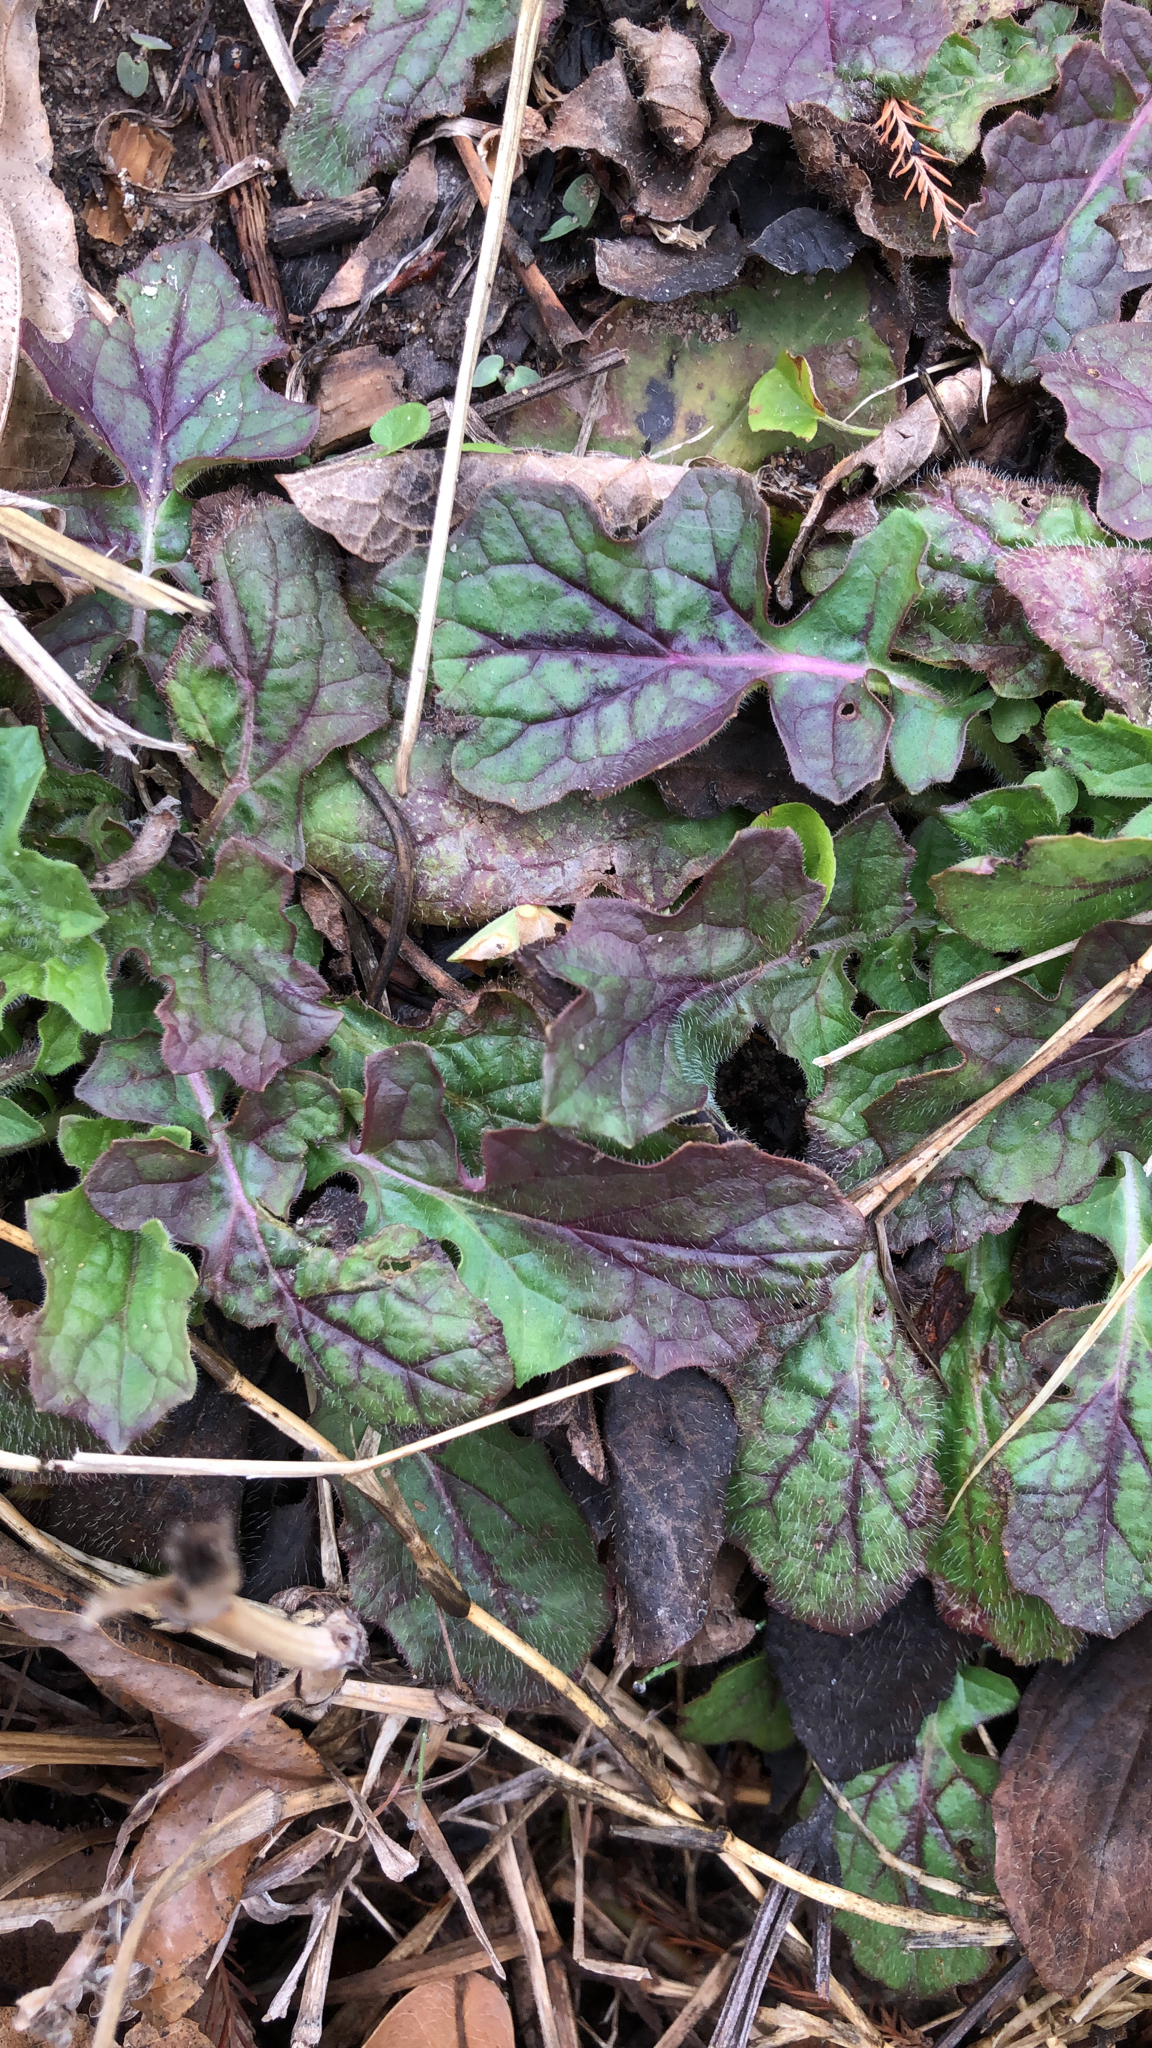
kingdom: Plantae
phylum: Tracheophyta
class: Magnoliopsida
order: Lamiales
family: Lamiaceae
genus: Salvia
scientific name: Salvia lyrata
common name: Cancerweed
